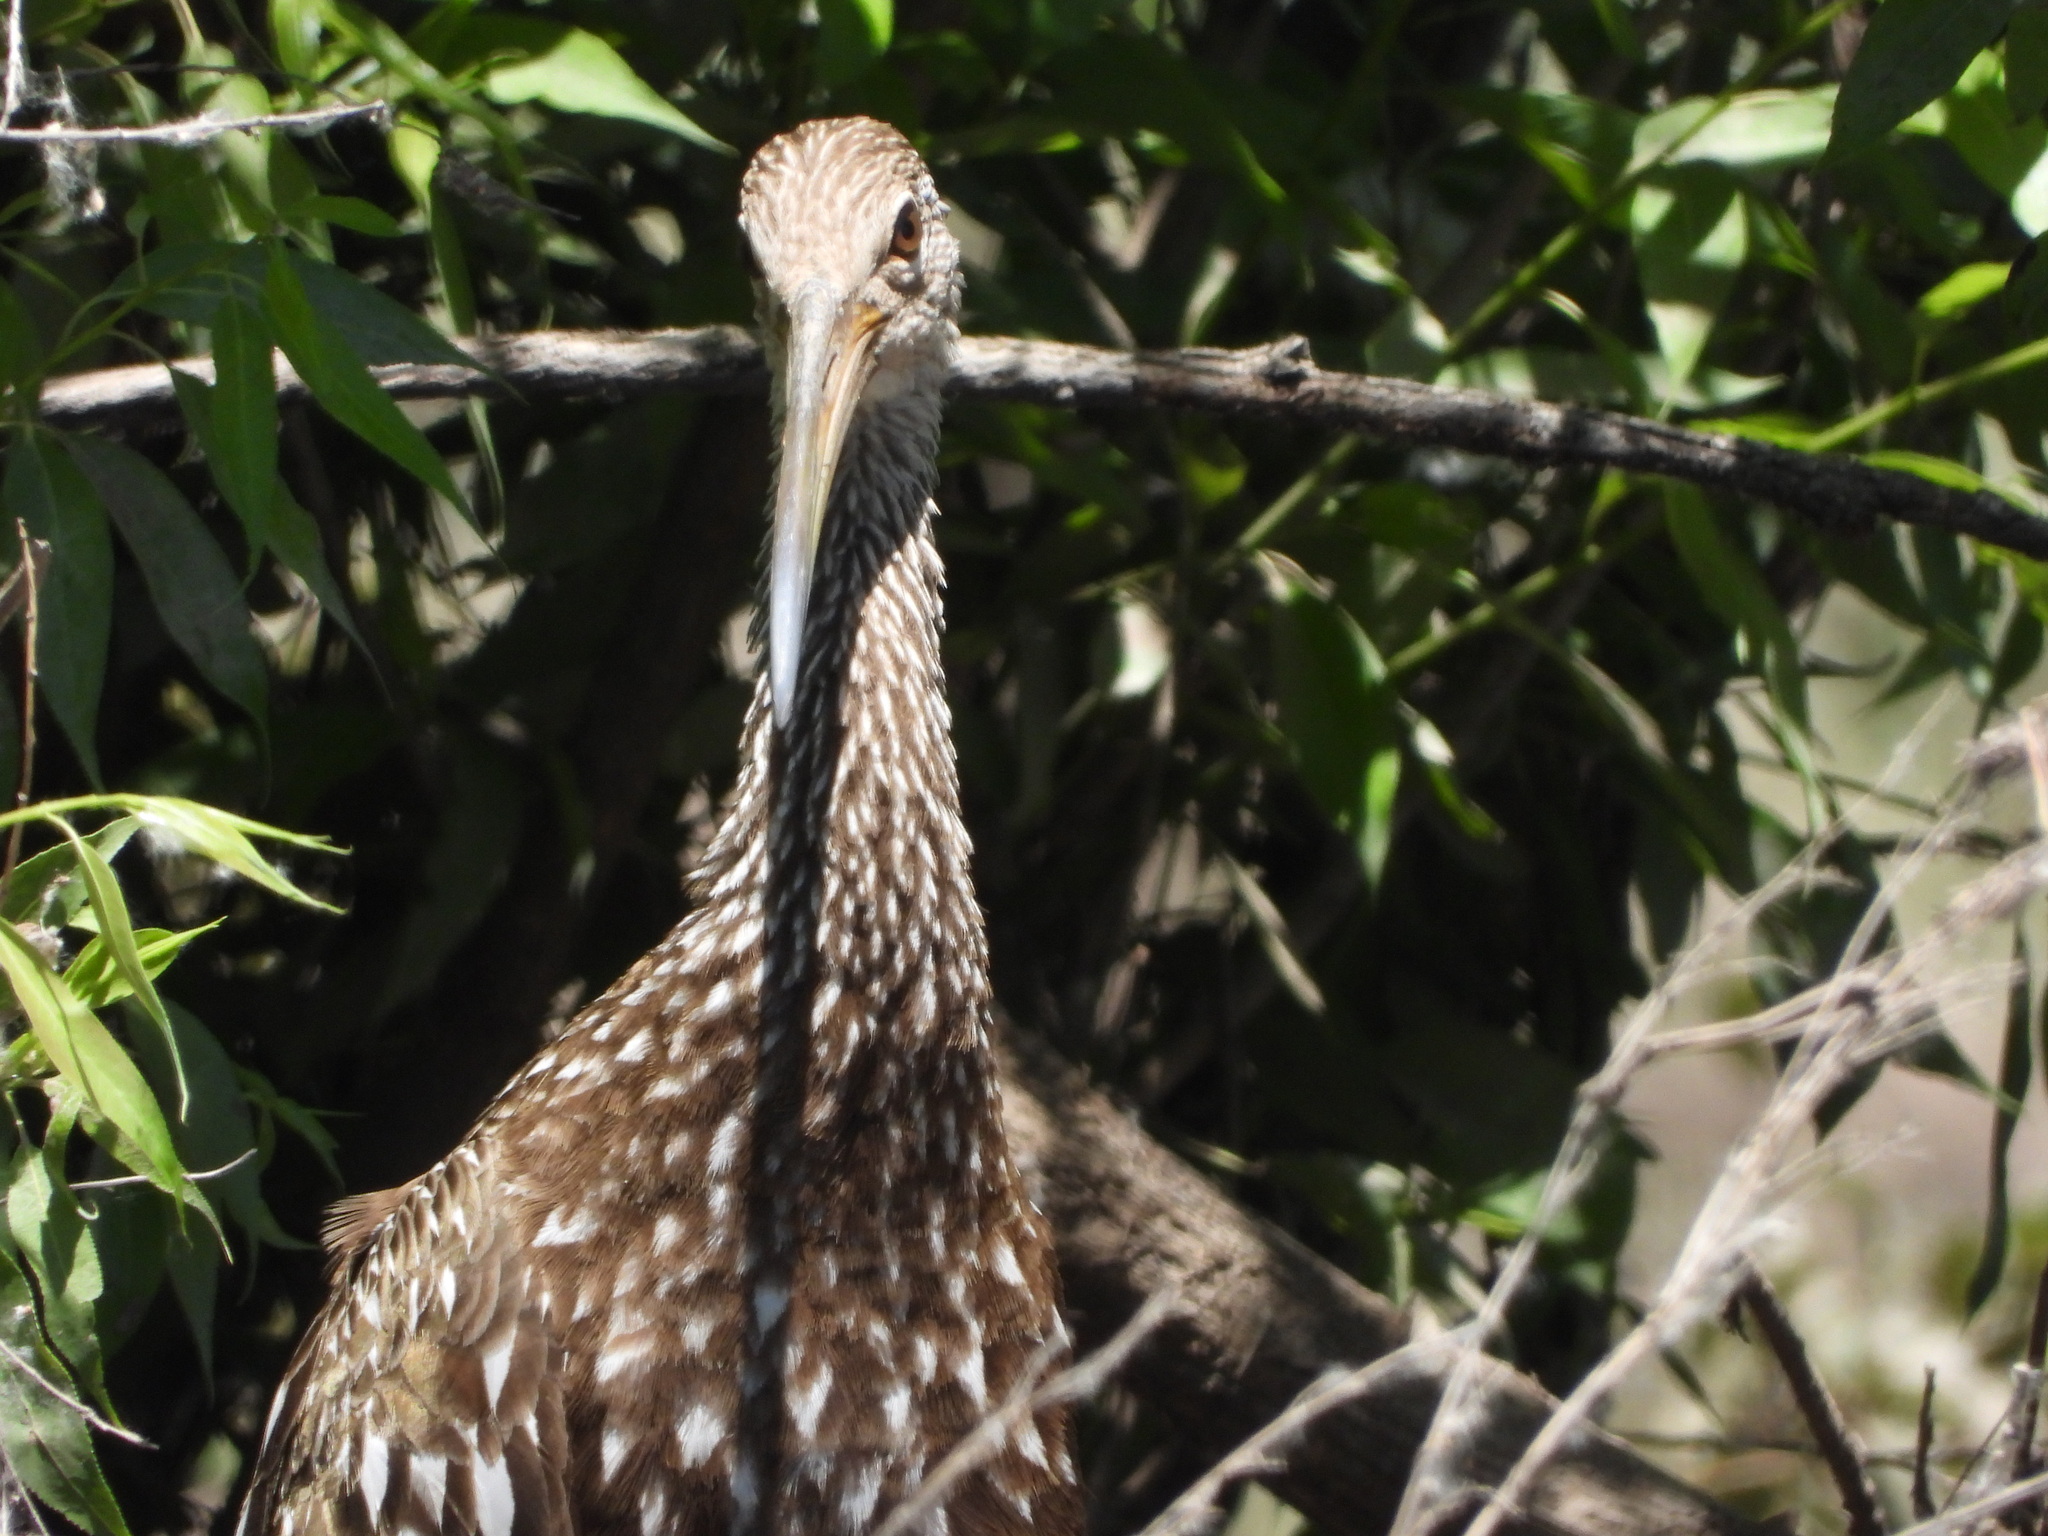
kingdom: Animalia
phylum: Chordata
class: Aves
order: Gruiformes
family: Aramidae
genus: Aramus
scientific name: Aramus guarauna
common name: Limpkin
